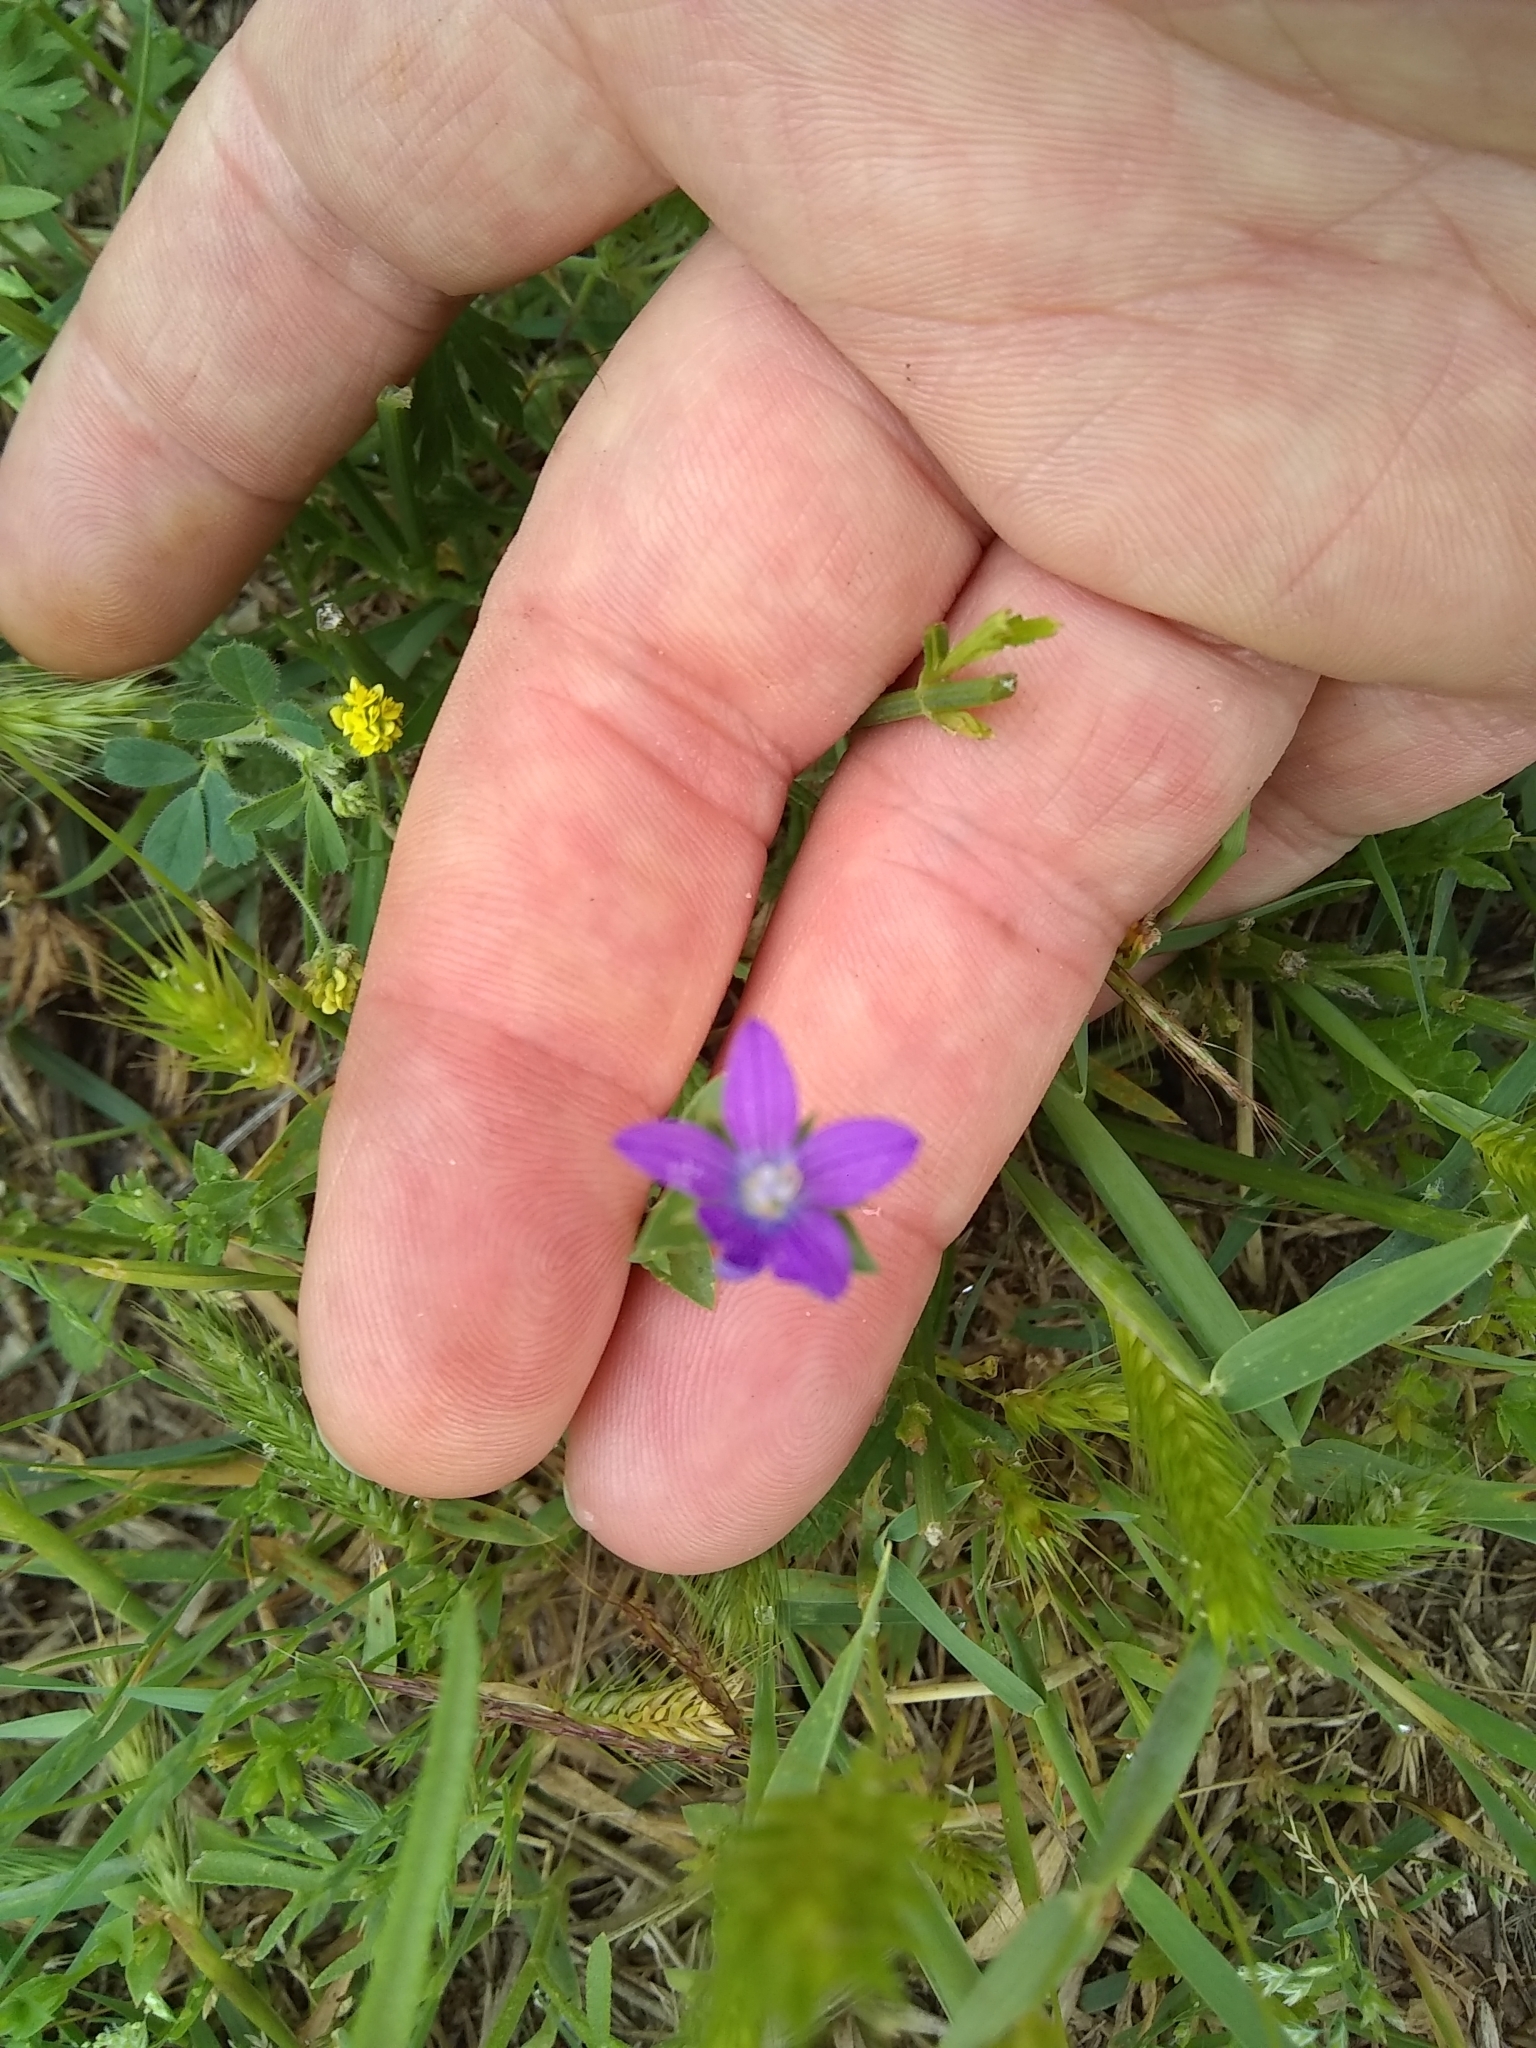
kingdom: Plantae
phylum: Tracheophyta
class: Magnoliopsida
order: Asterales
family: Campanulaceae
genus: Triodanis
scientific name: Triodanis biflora
